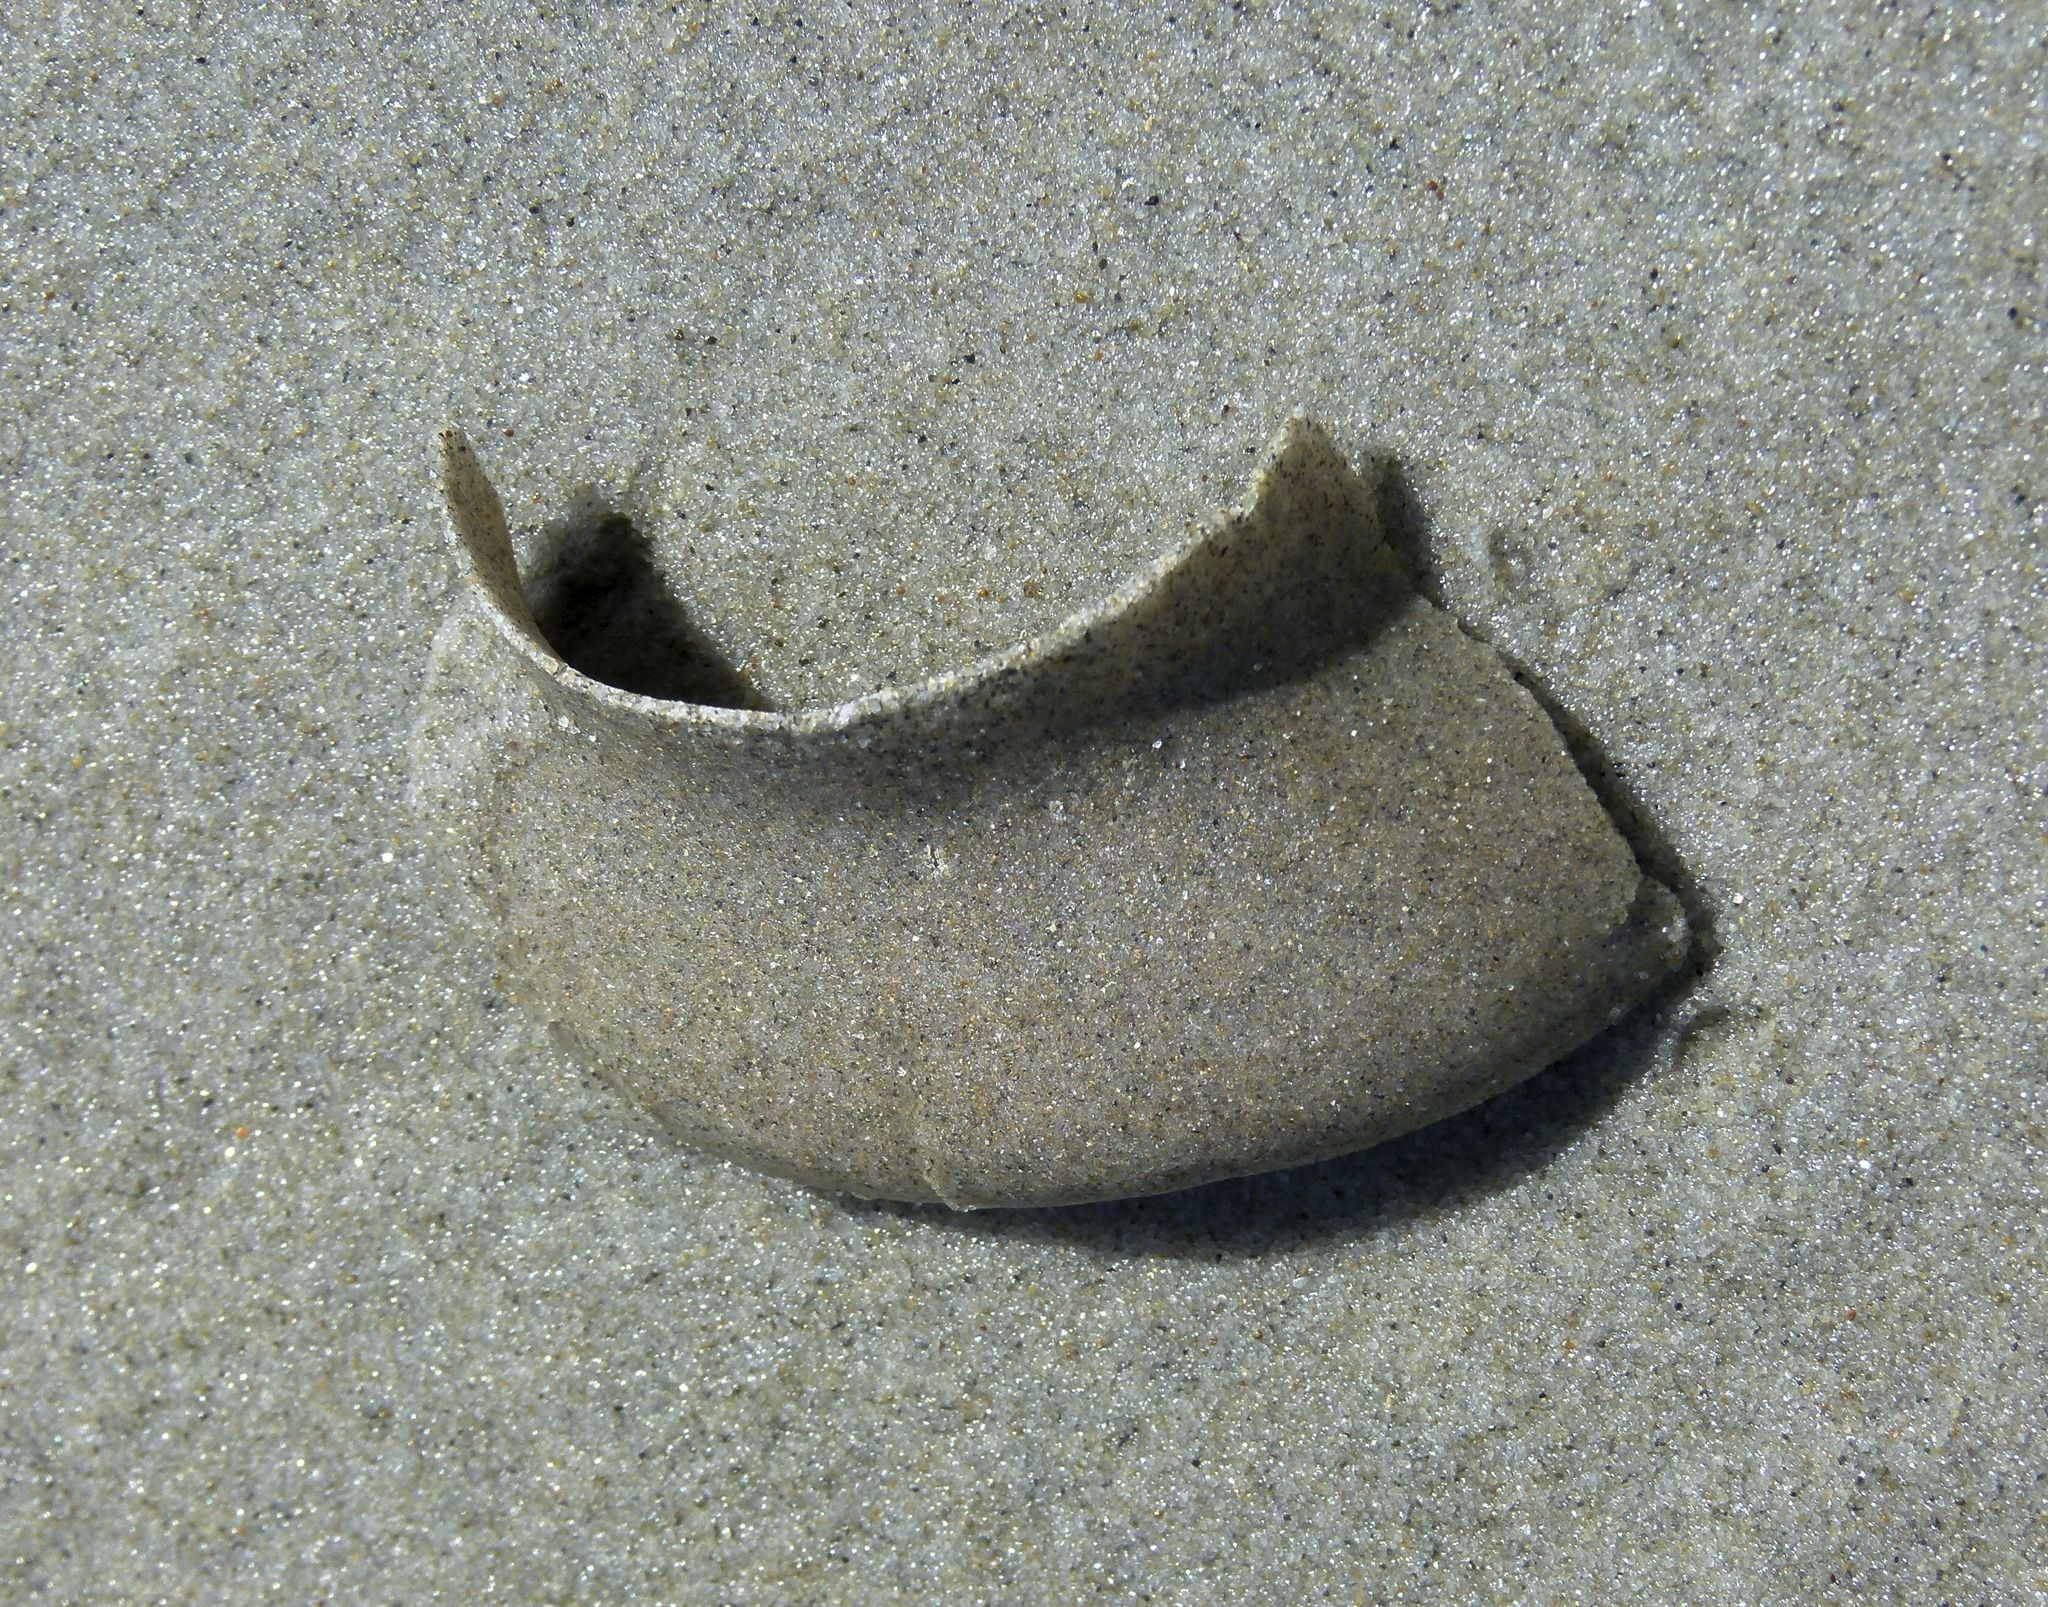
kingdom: Animalia
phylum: Mollusca
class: Gastropoda
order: Littorinimorpha
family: Naticidae
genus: Tanea
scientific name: Tanea zelandica
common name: New zealand moonsnail
